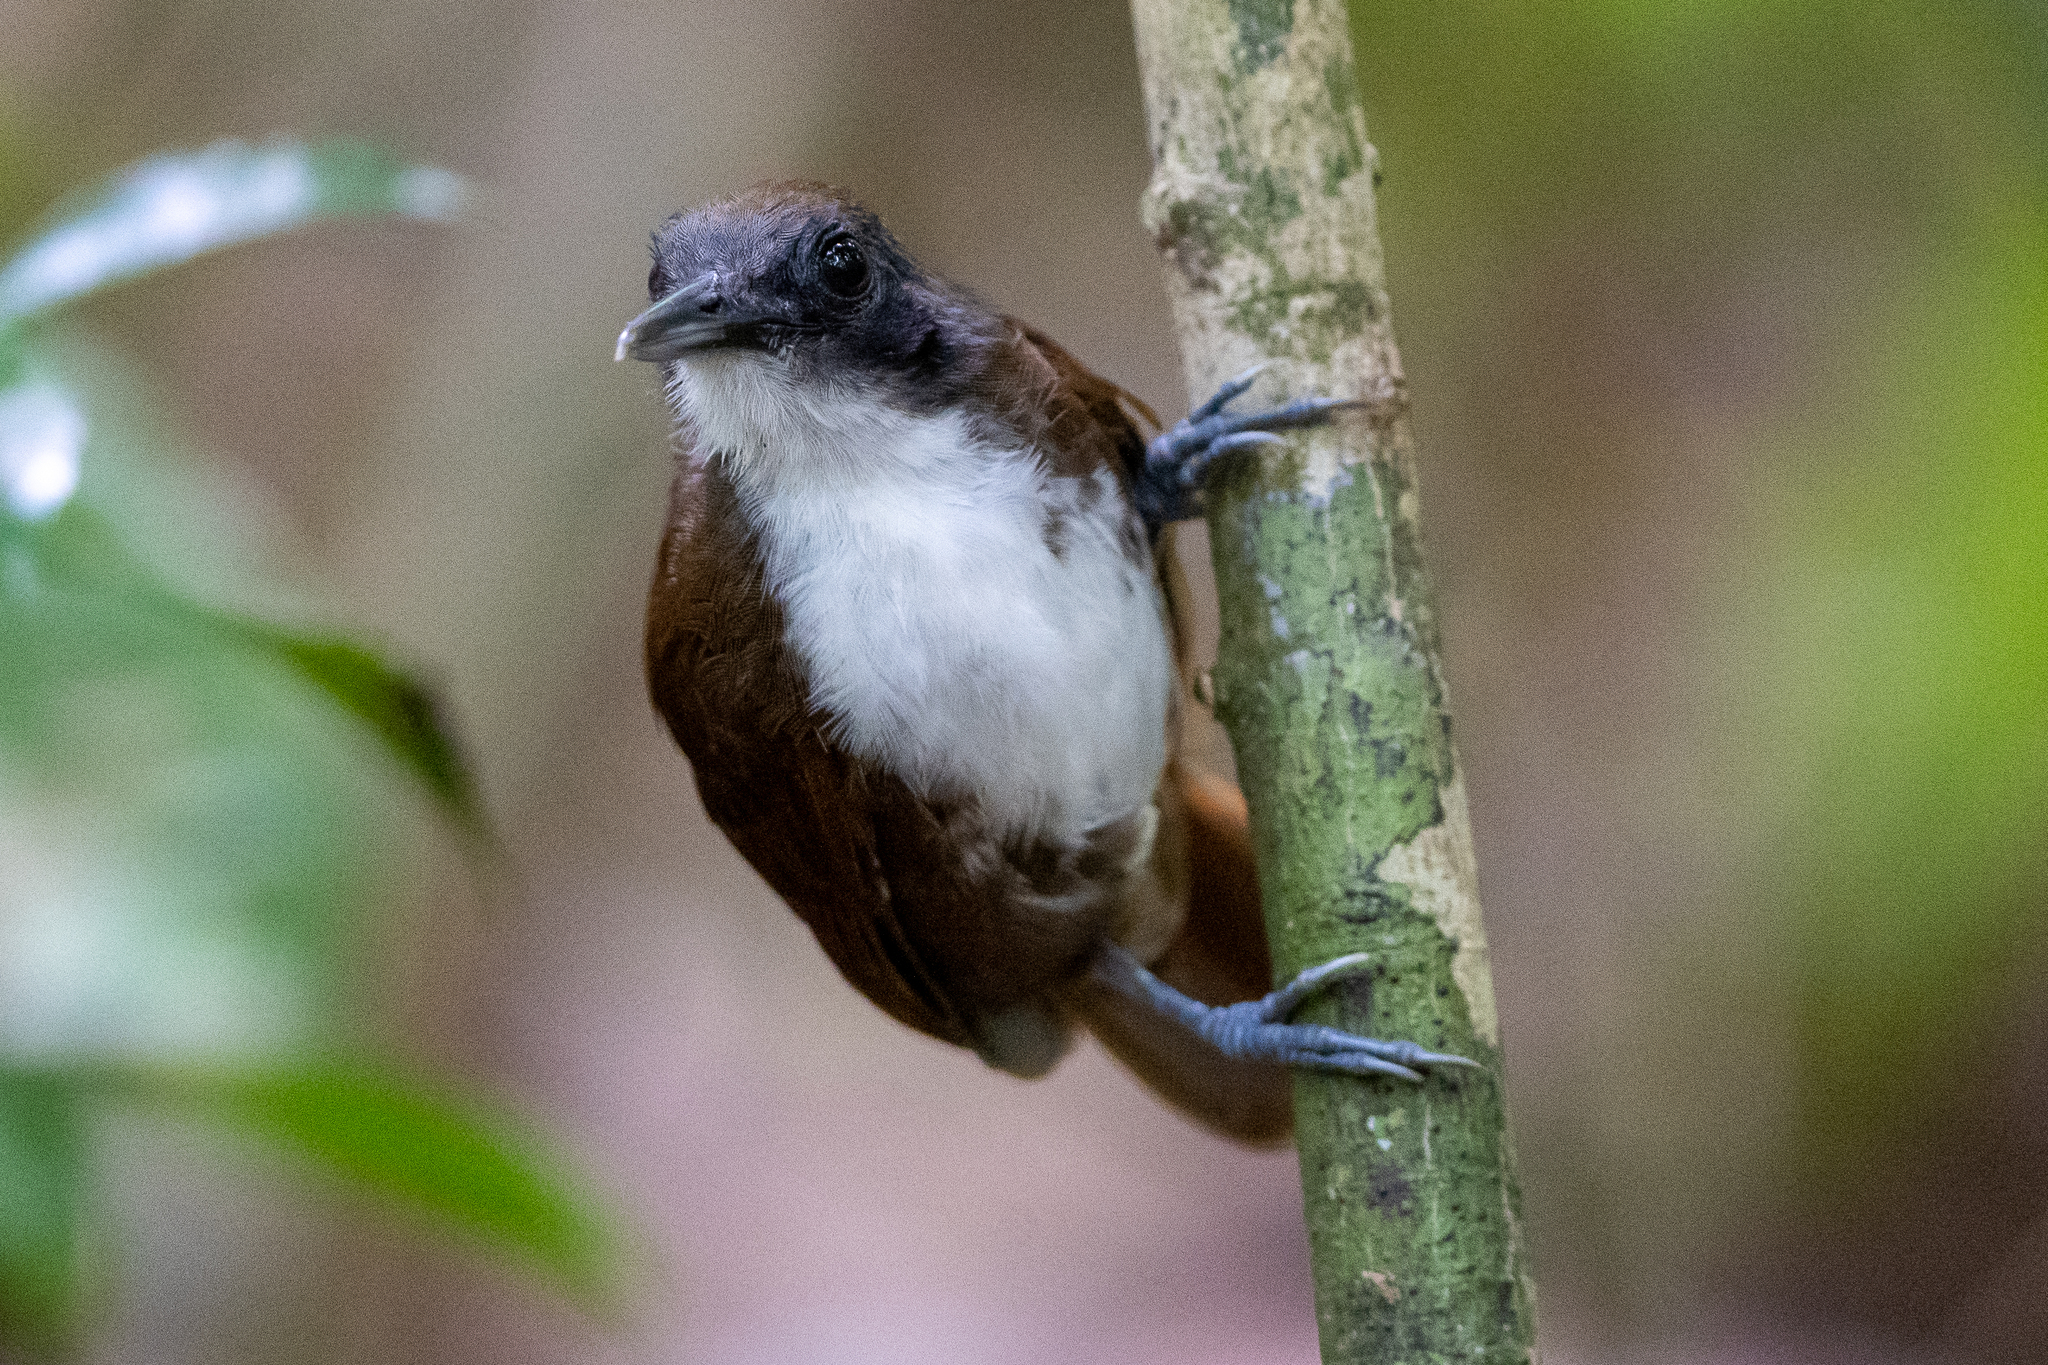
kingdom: Animalia
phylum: Chordata
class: Aves
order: Passeriformes
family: Thamnophilidae
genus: Gymnopithys
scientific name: Gymnopithys leucaspis
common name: White-cheeked antbird
